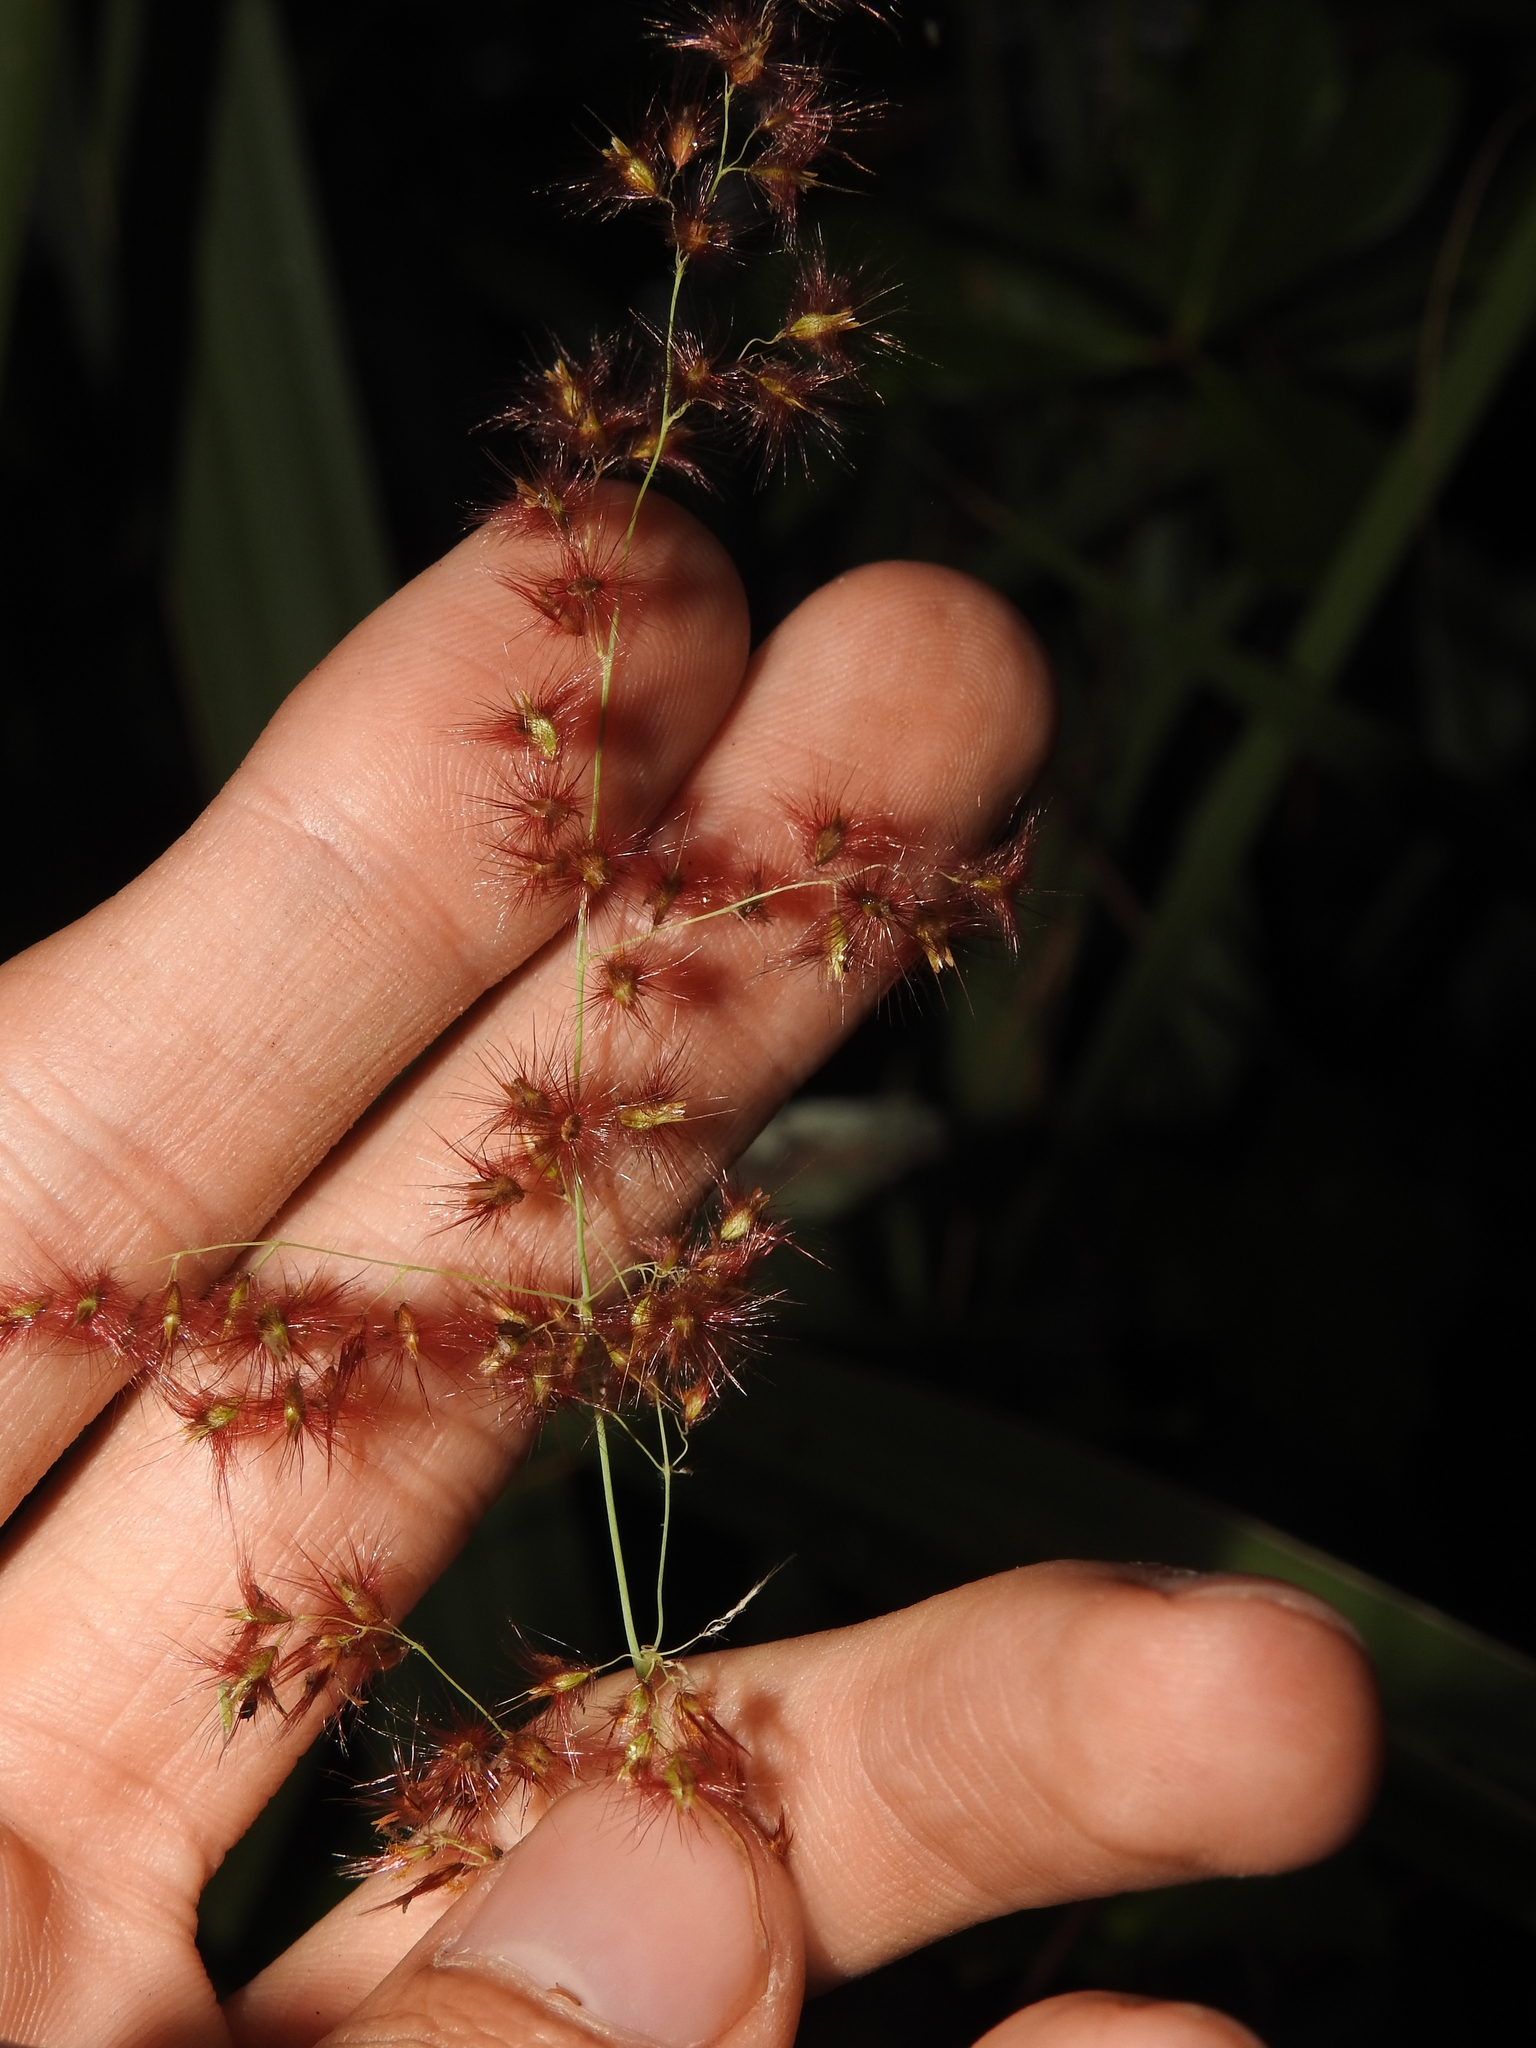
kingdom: Plantae
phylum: Tracheophyta
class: Liliopsida
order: Poales
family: Poaceae
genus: Melinis
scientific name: Melinis repens
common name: Rose natal grass
